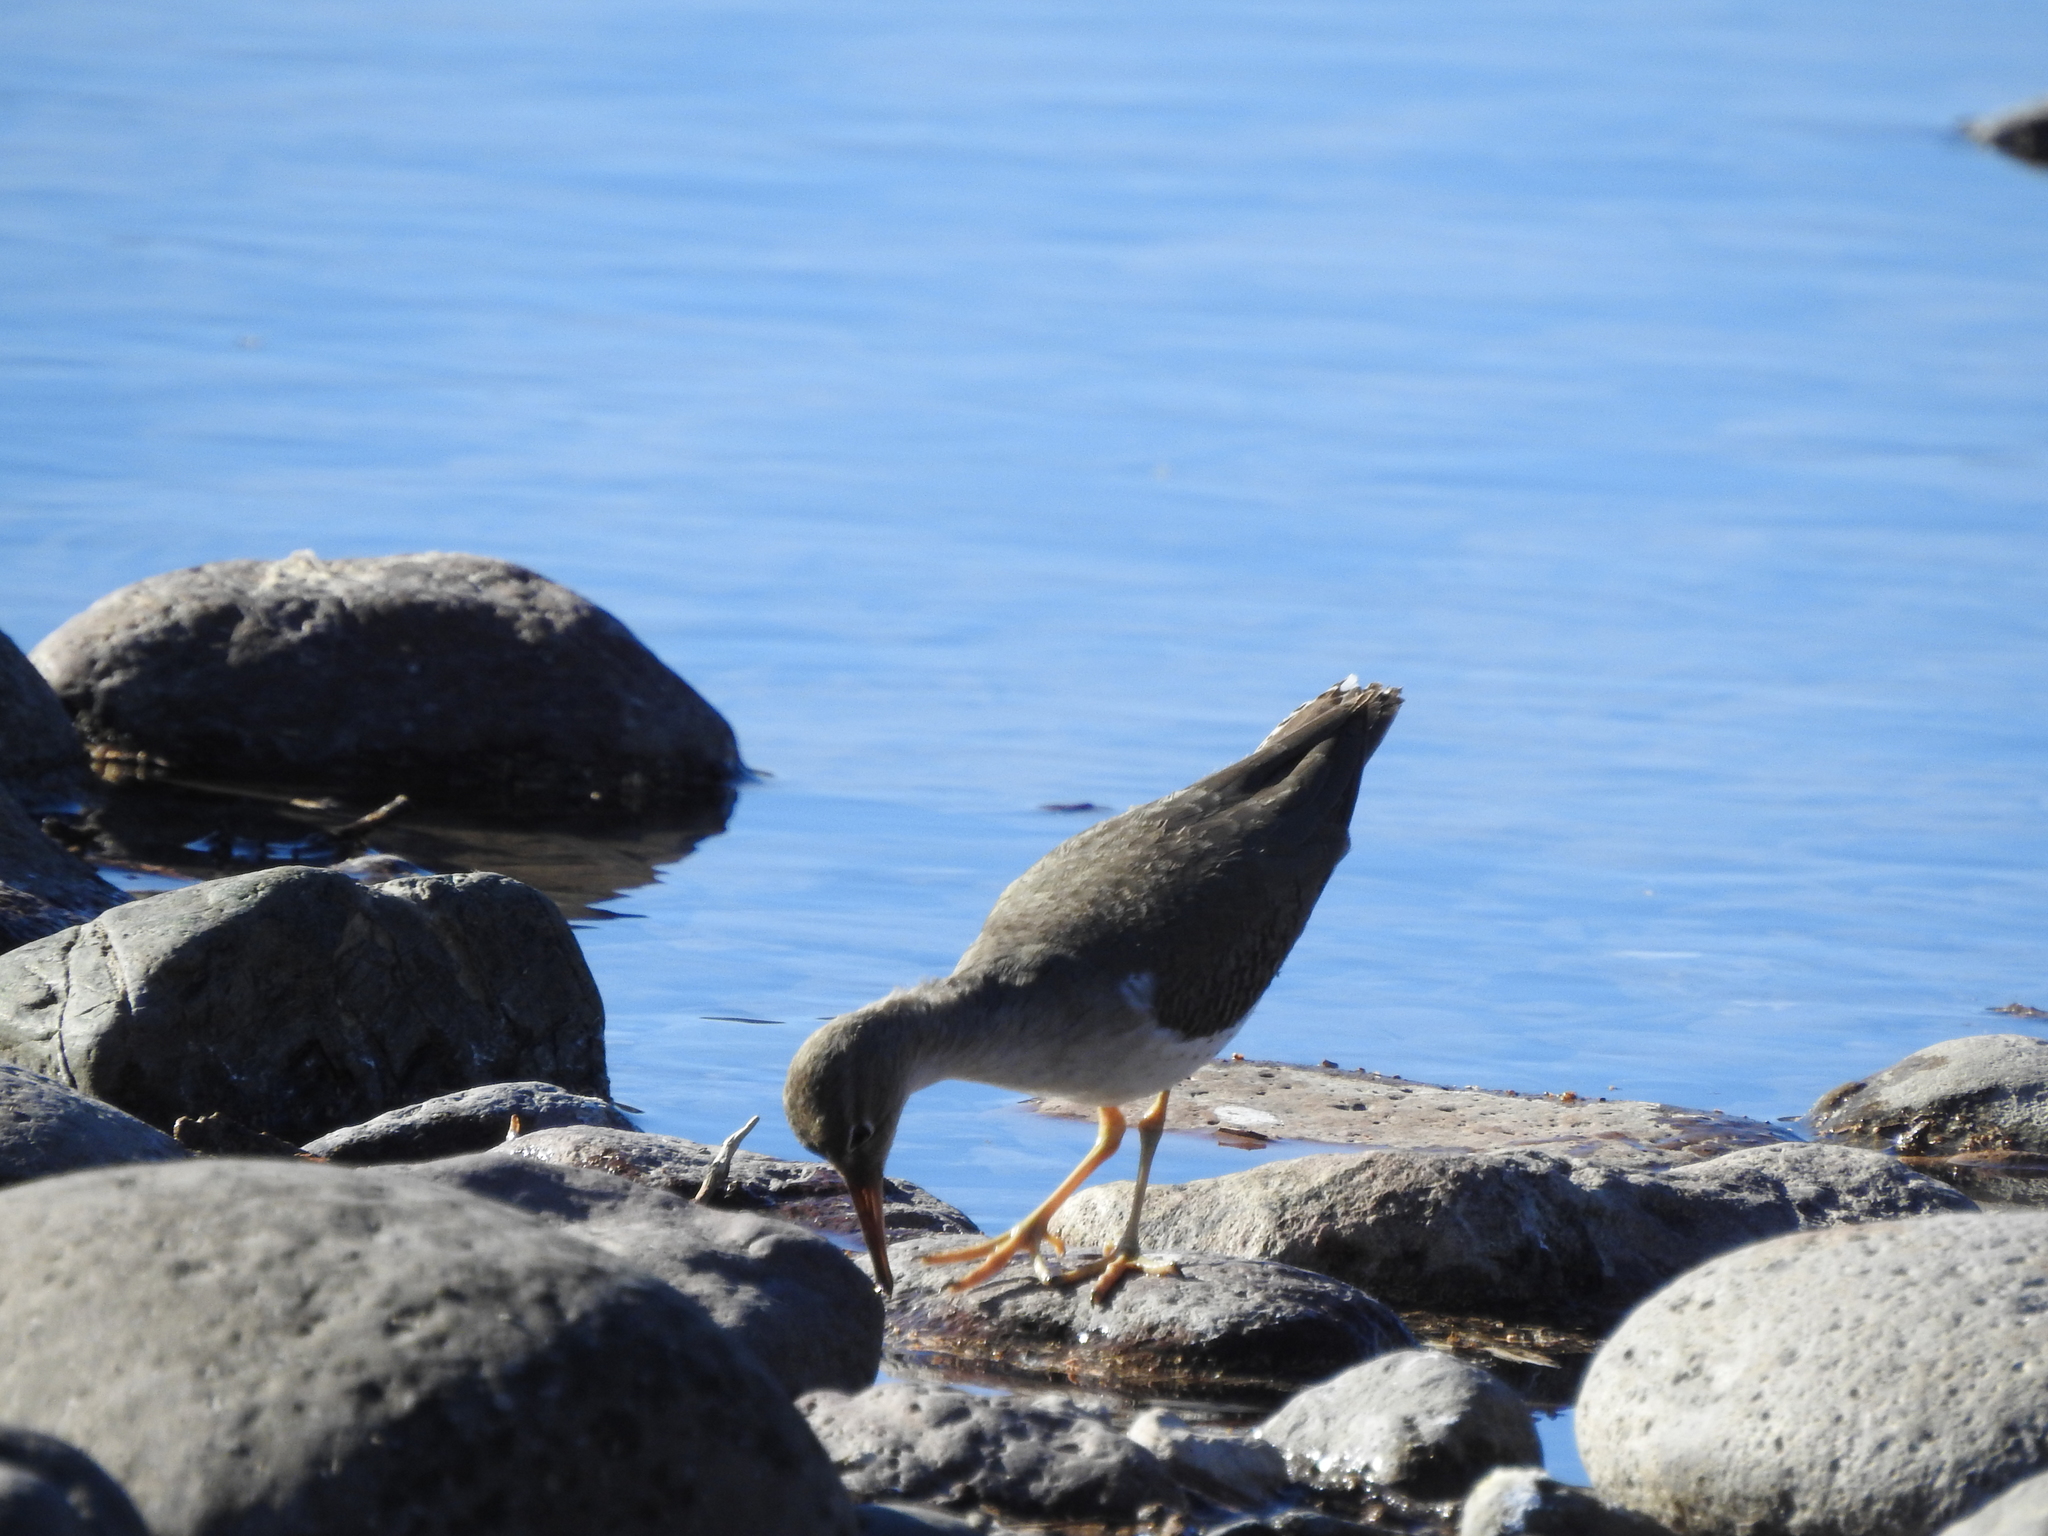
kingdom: Animalia
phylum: Chordata
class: Aves
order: Charadriiformes
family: Scolopacidae
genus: Actitis
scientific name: Actitis macularius
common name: Spotted sandpiper
